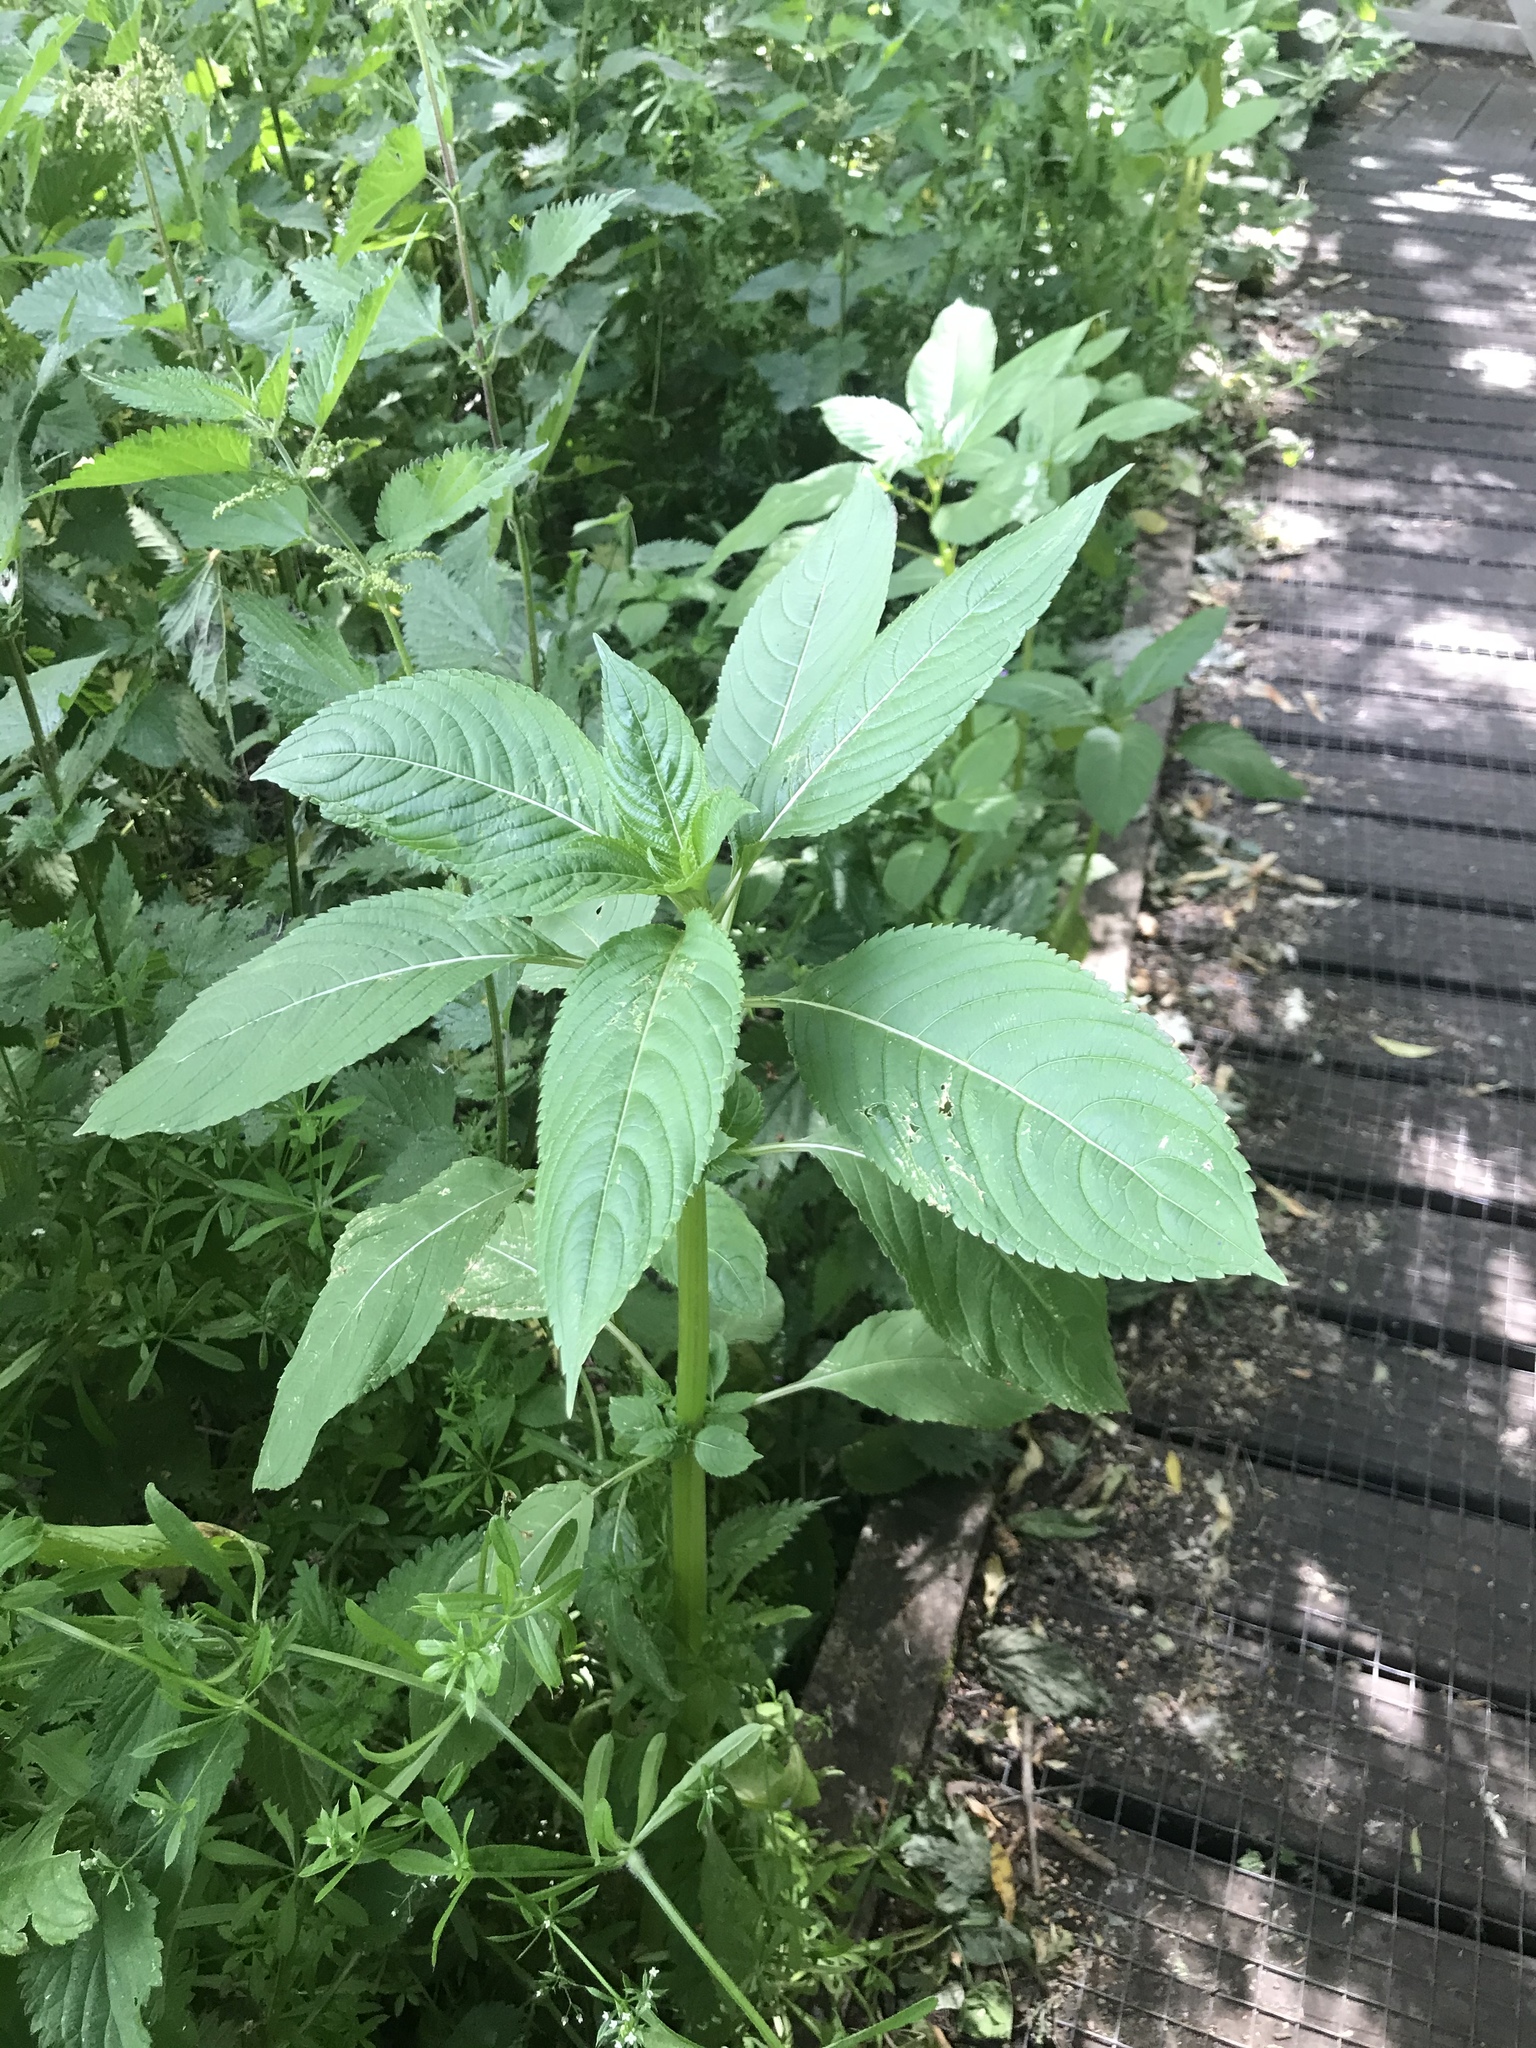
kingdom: Plantae
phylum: Tracheophyta
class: Magnoliopsida
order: Ericales
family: Balsaminaceae
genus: Impatiens
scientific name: Impatiens glandulifera
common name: Himalayan balsam
